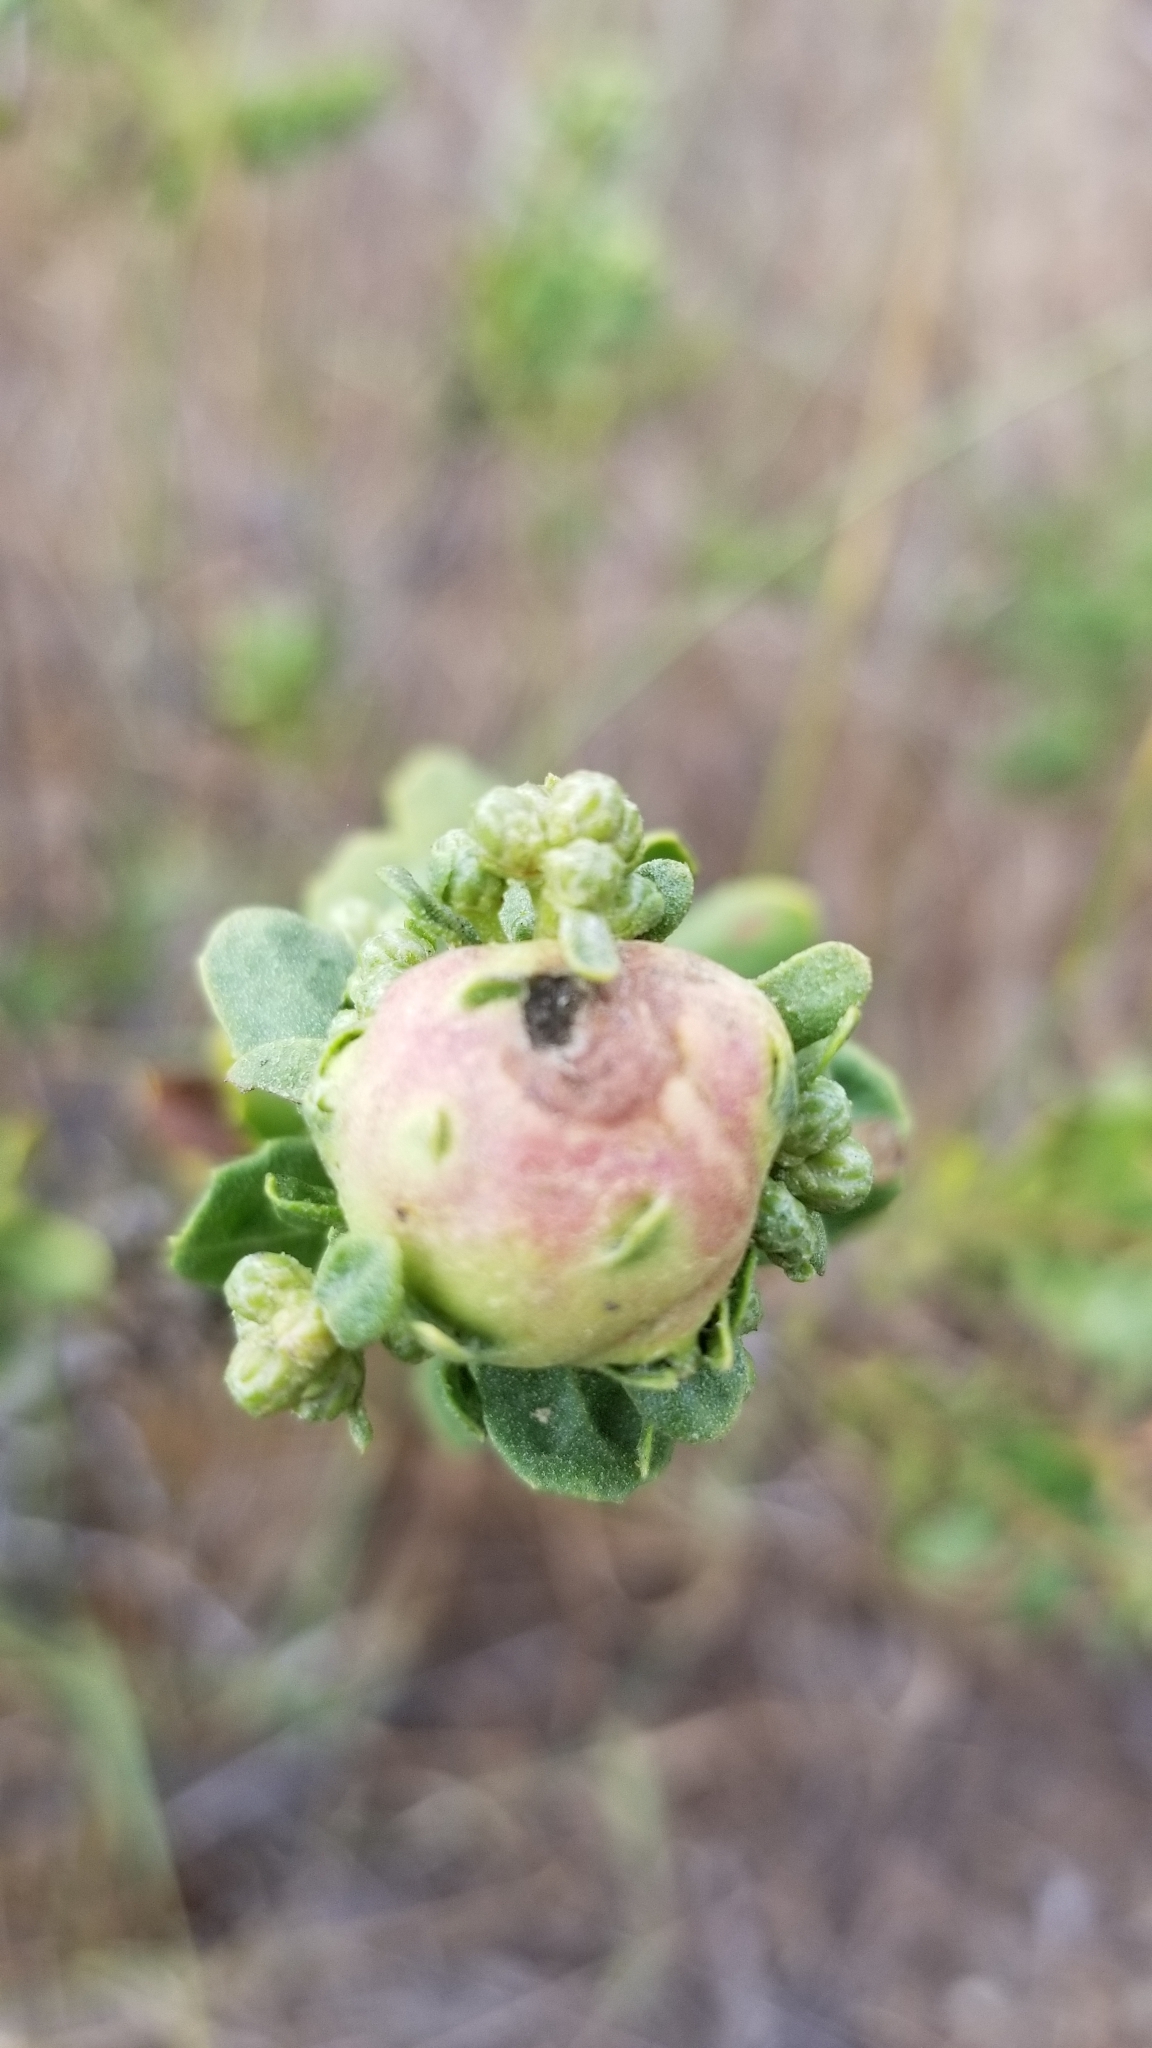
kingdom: Animalia
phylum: Arthropoda
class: Insecta
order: Diptera
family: Cecidomyiidae
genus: Rhopalomyia
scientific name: Rhopalomyia californica
